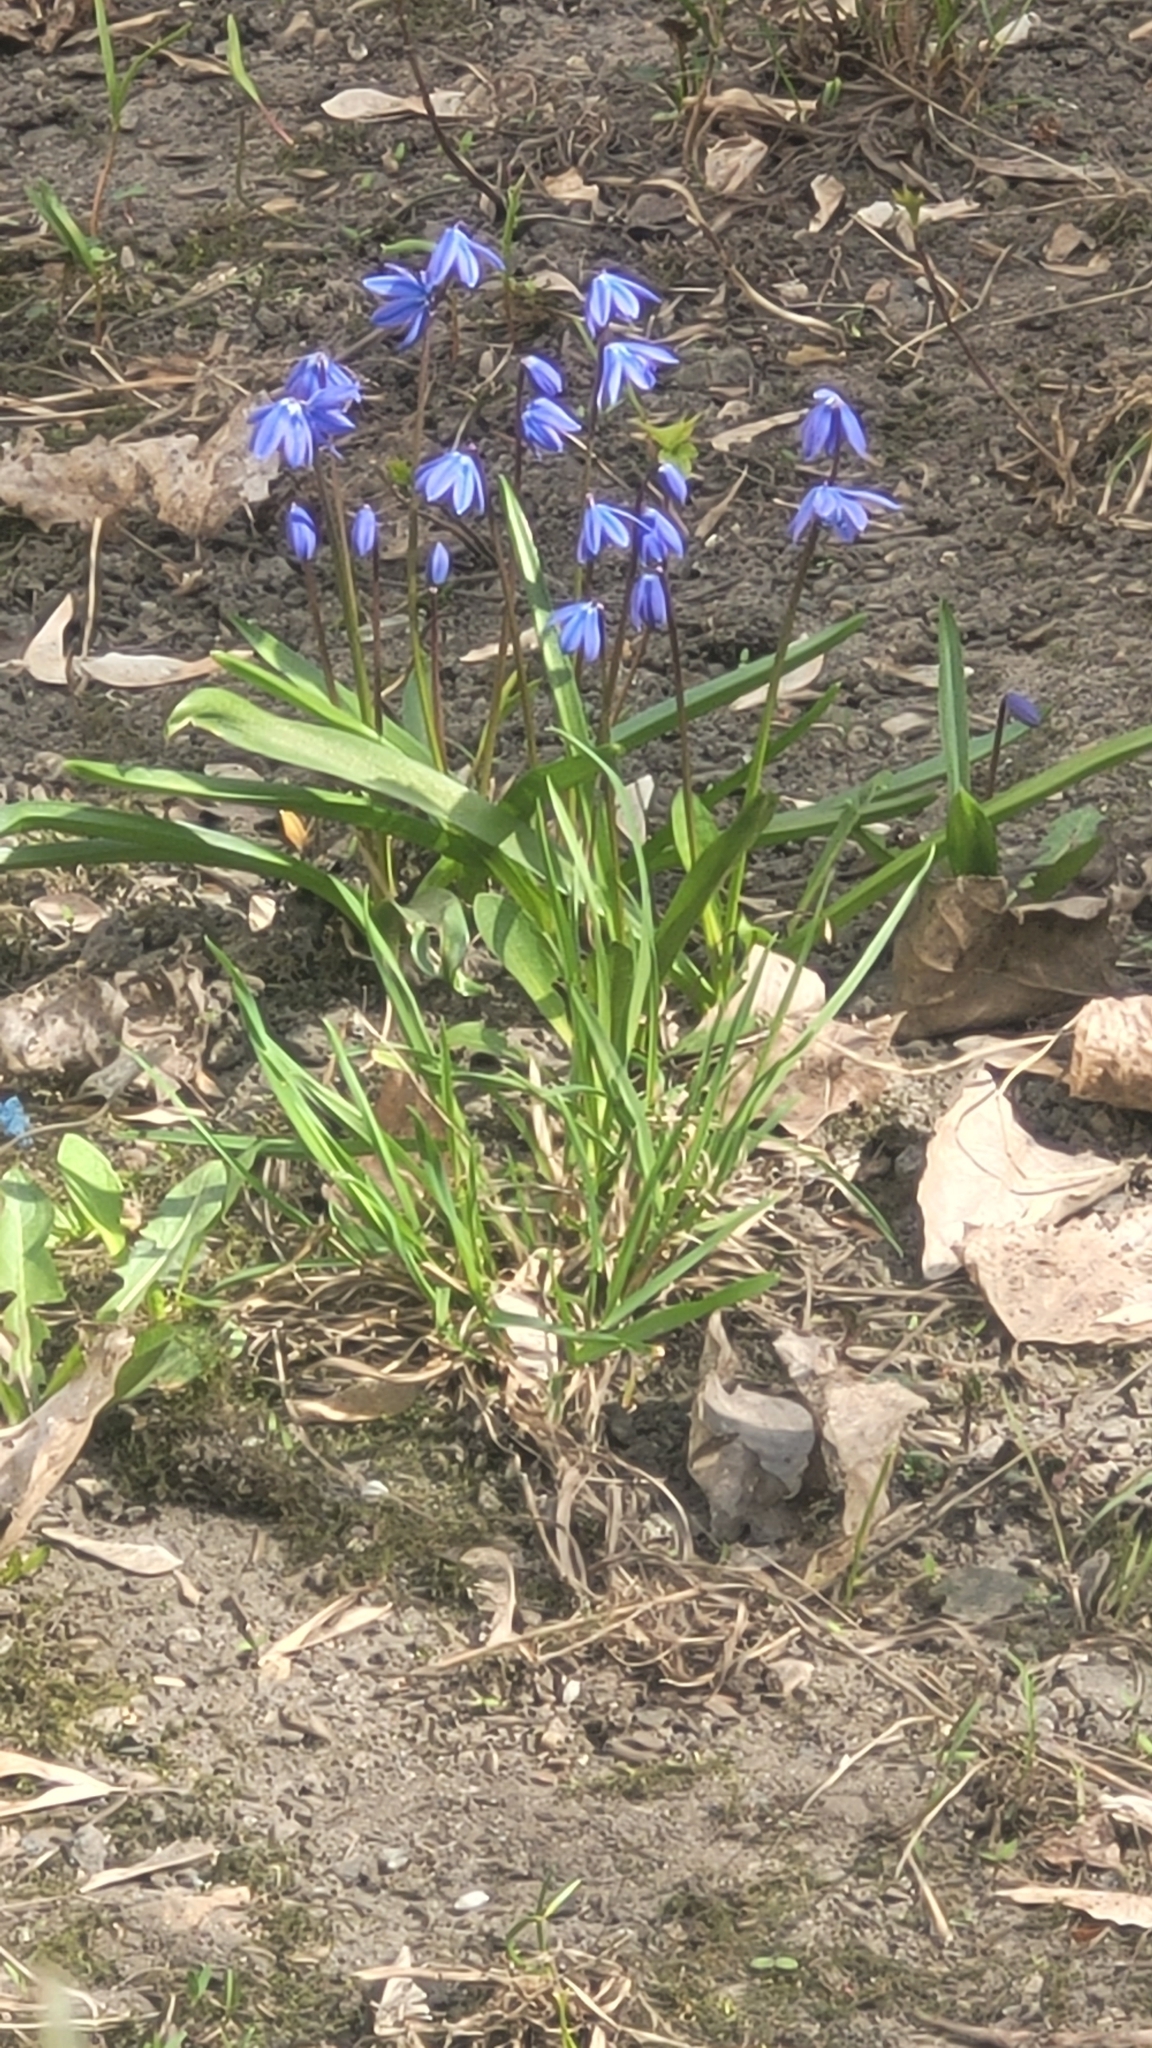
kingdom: Plantae
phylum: Tracheophyta
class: Liliopsida
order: Asparagales
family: Asparagaceae
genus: Scilla
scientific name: Scilla siberica
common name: Siberian squill
